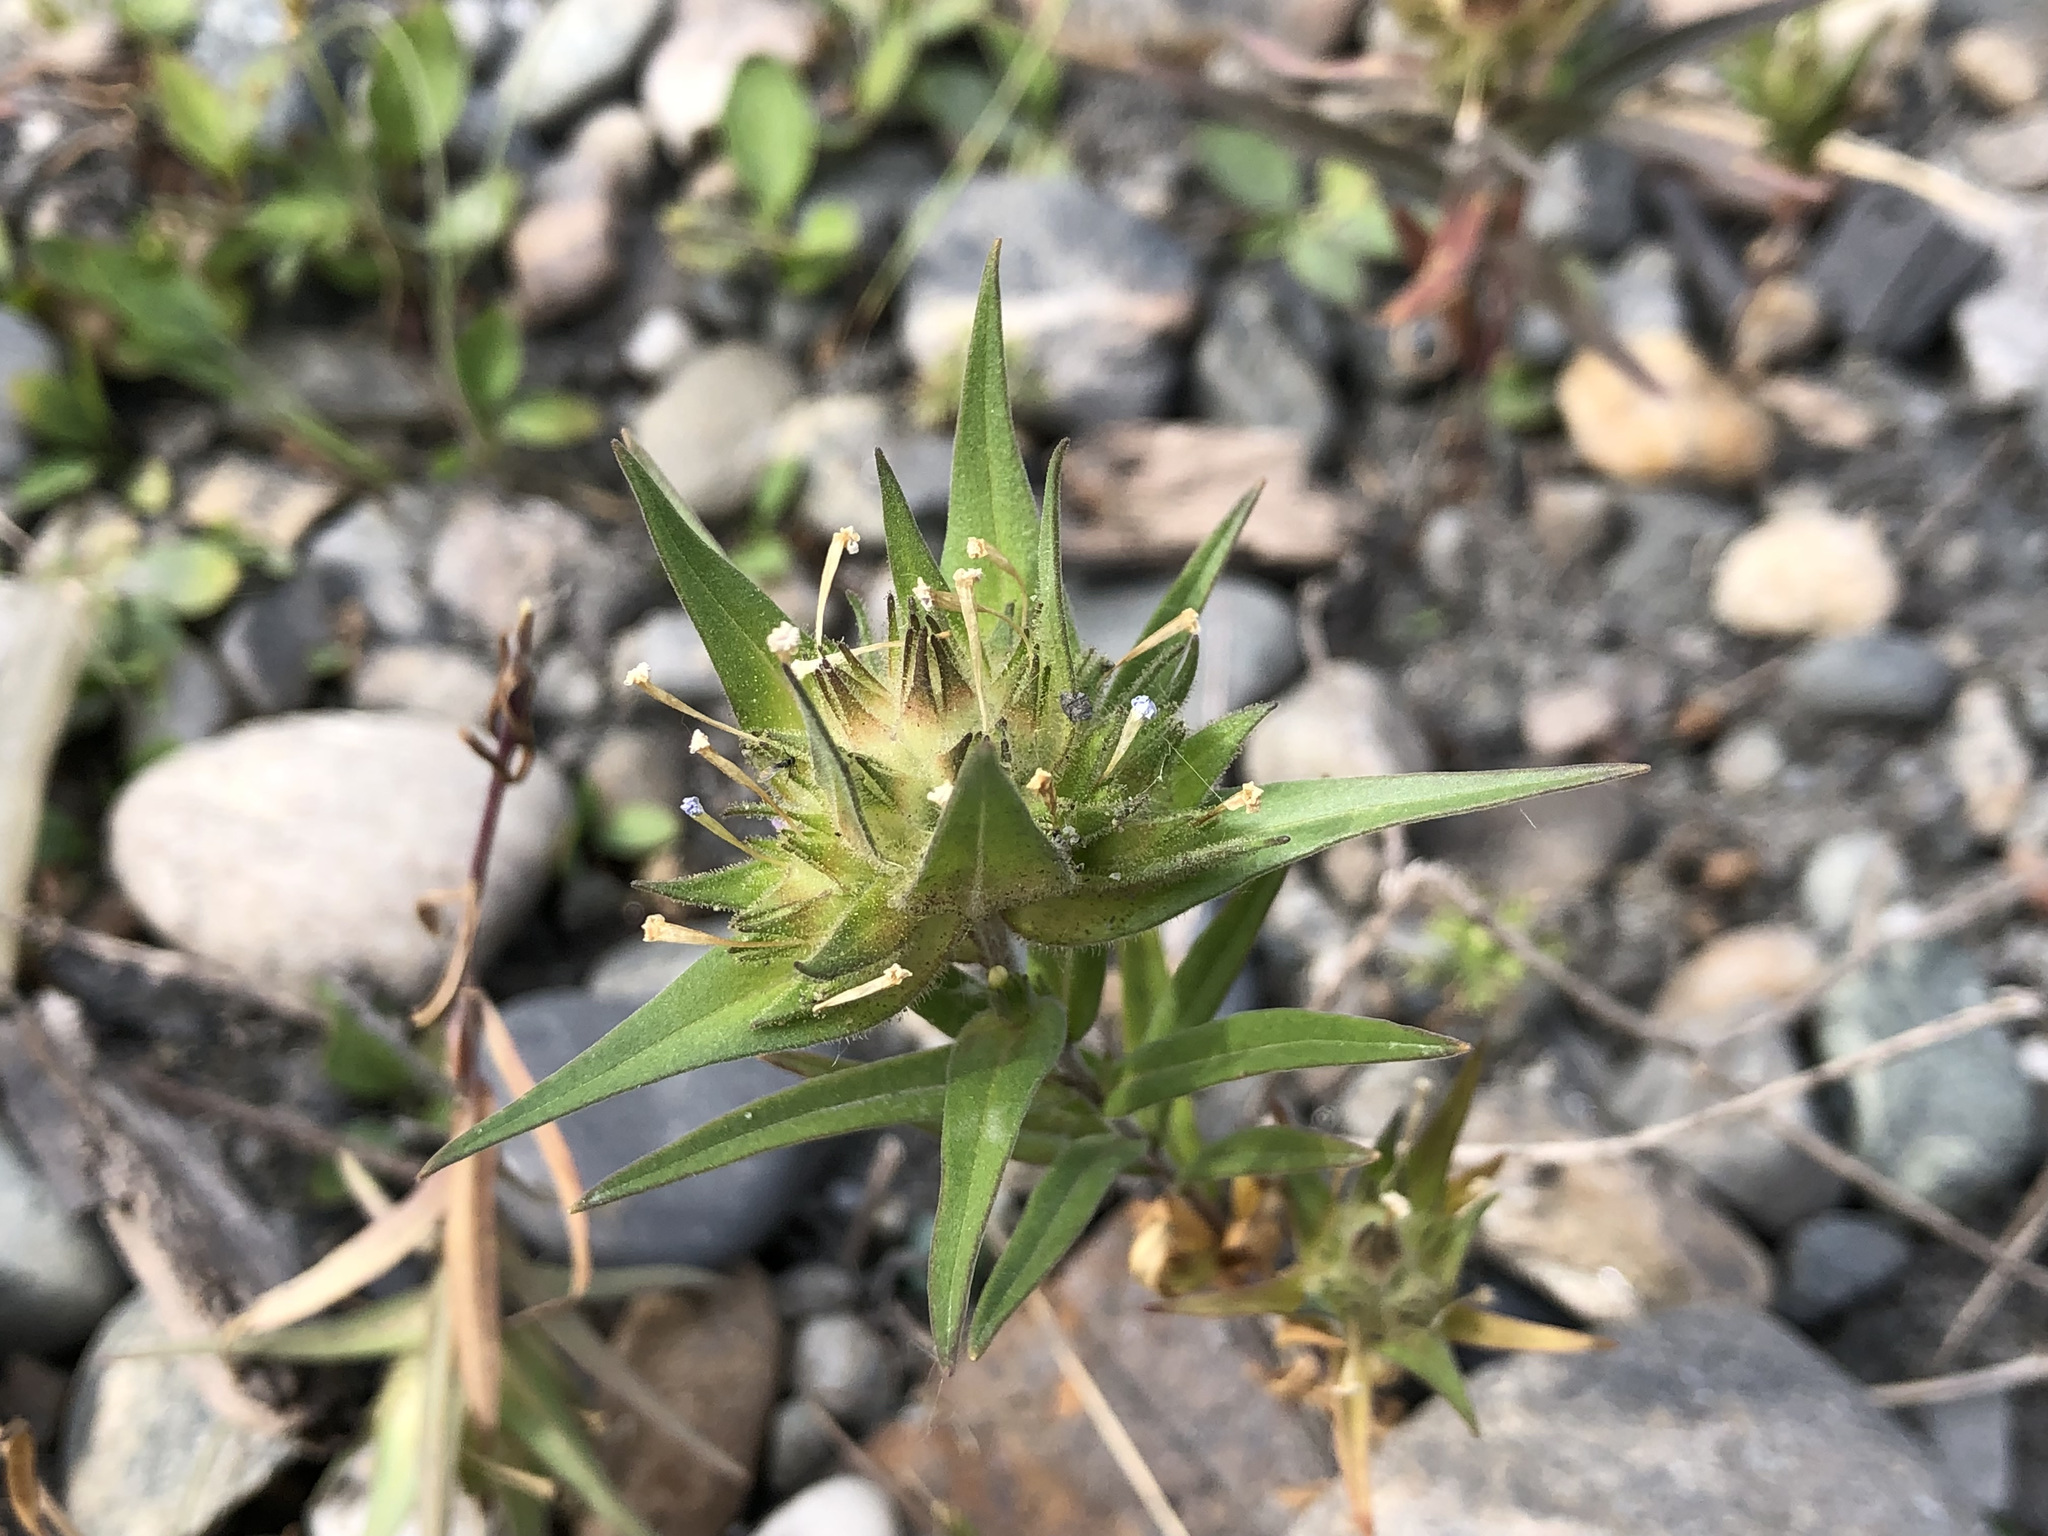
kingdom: Plantae
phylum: Tracheophyta
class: Magnoliopsida
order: Ericales
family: Polemoniaceae
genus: Collomia
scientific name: Collomia linearis
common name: Tiny trumpet
